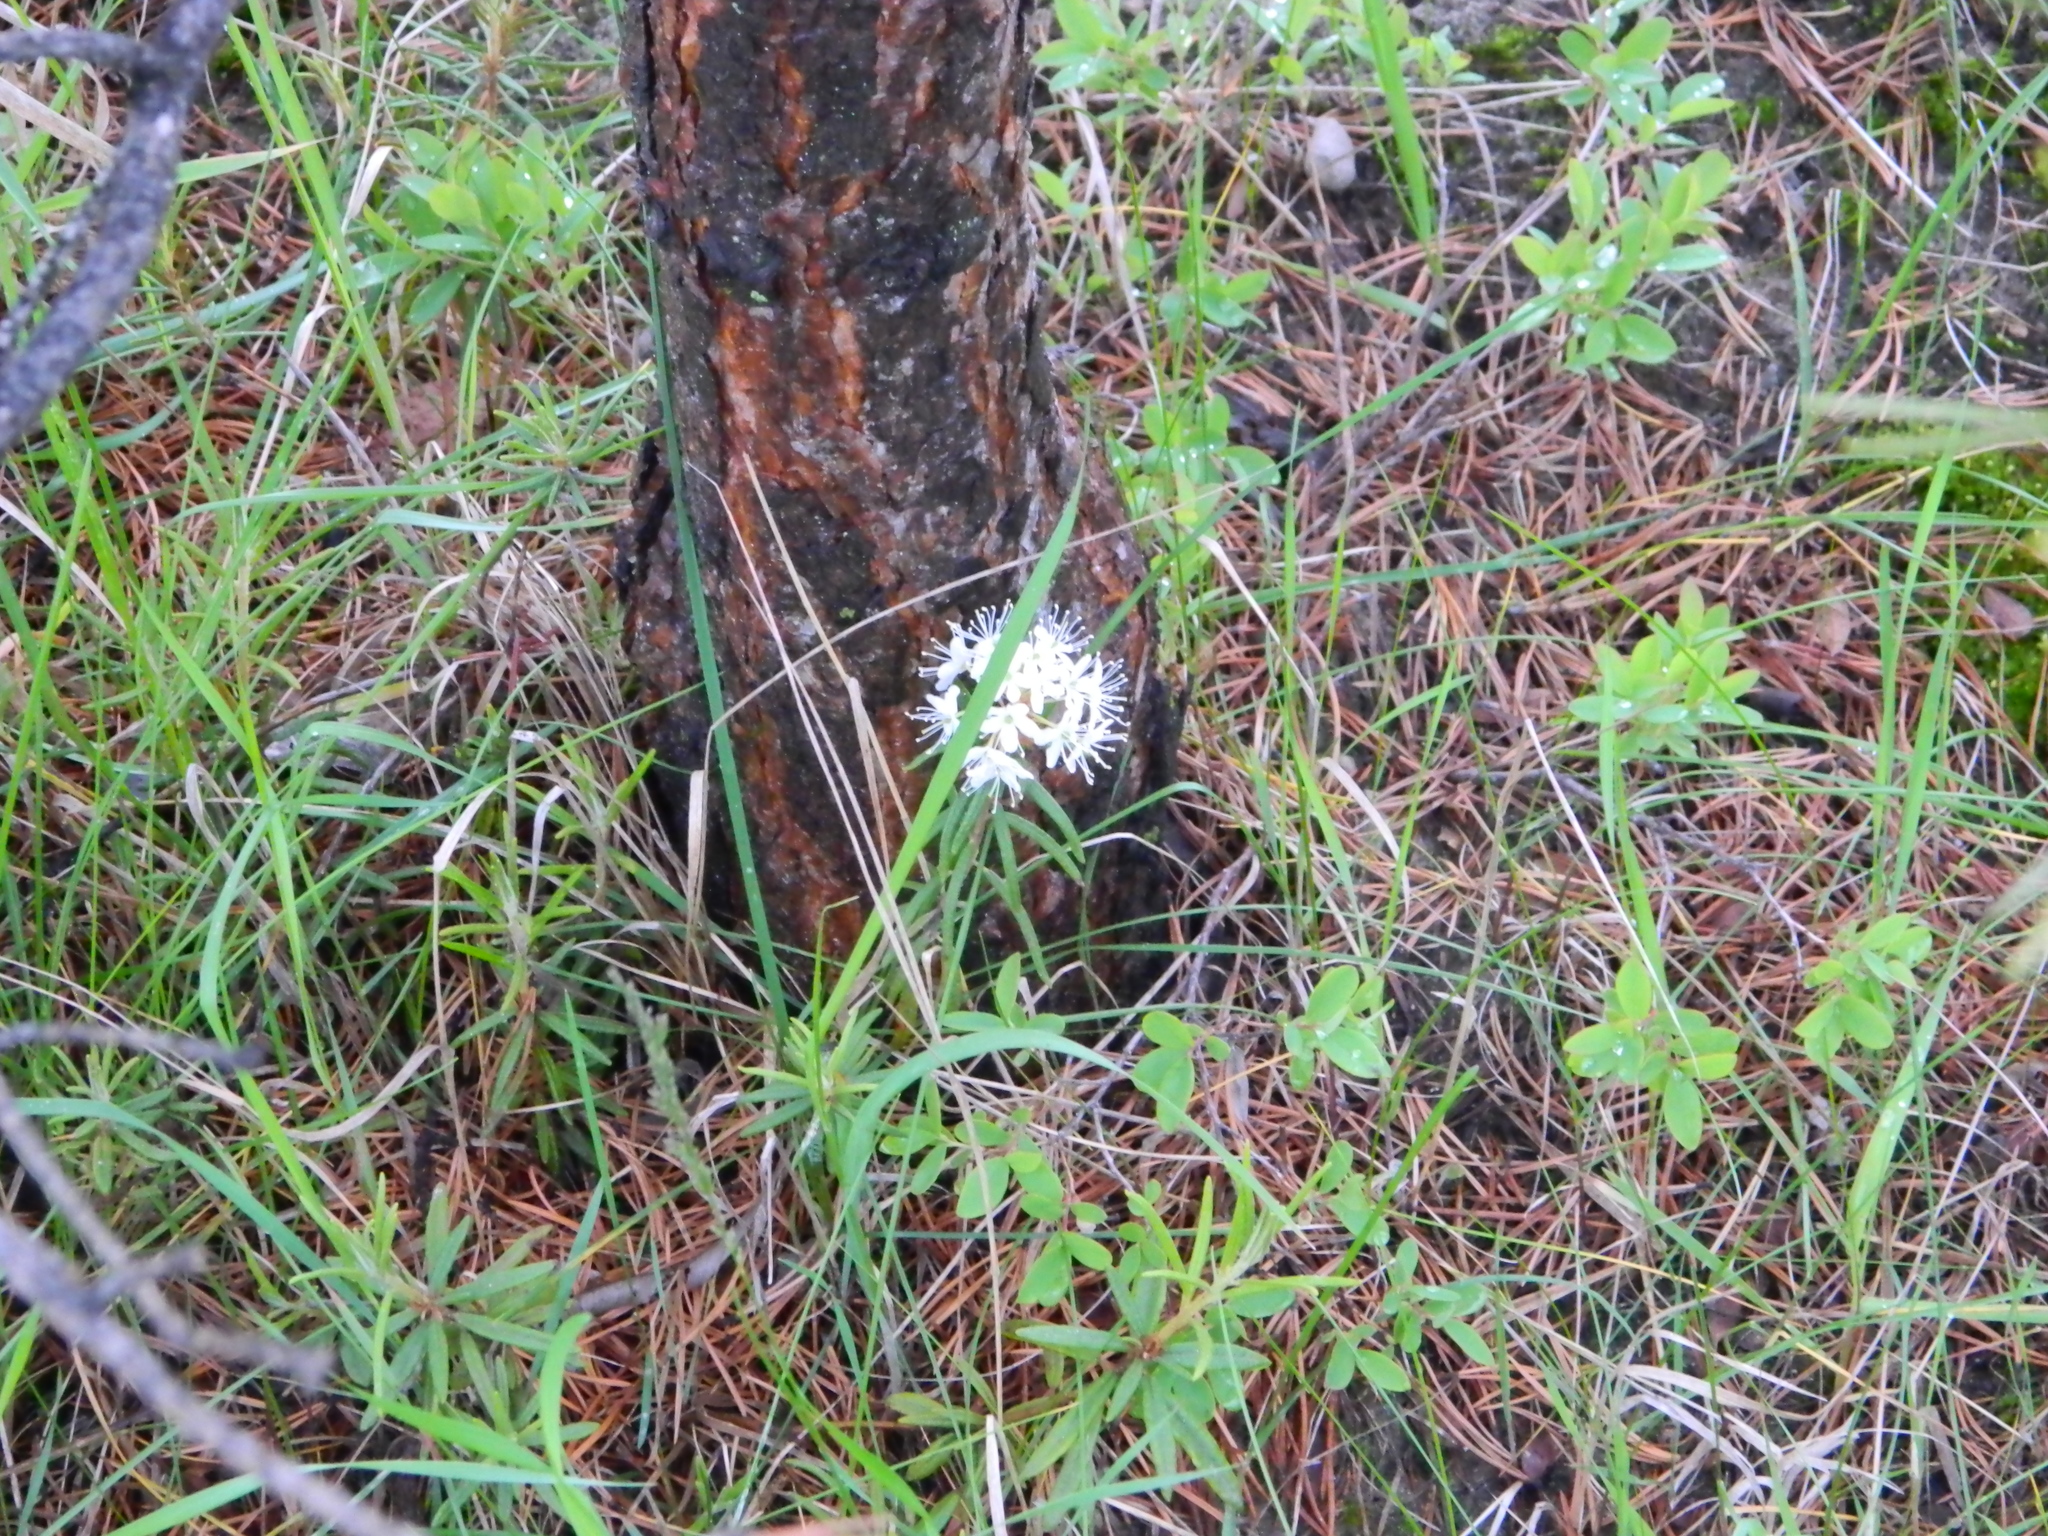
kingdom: Plantae
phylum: Tracheophyta
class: Magnoliopsida
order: Ericales
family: Ericaceae
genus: Rhododendron
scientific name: Rhododendron tomentosum
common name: Marsh labrador tea
